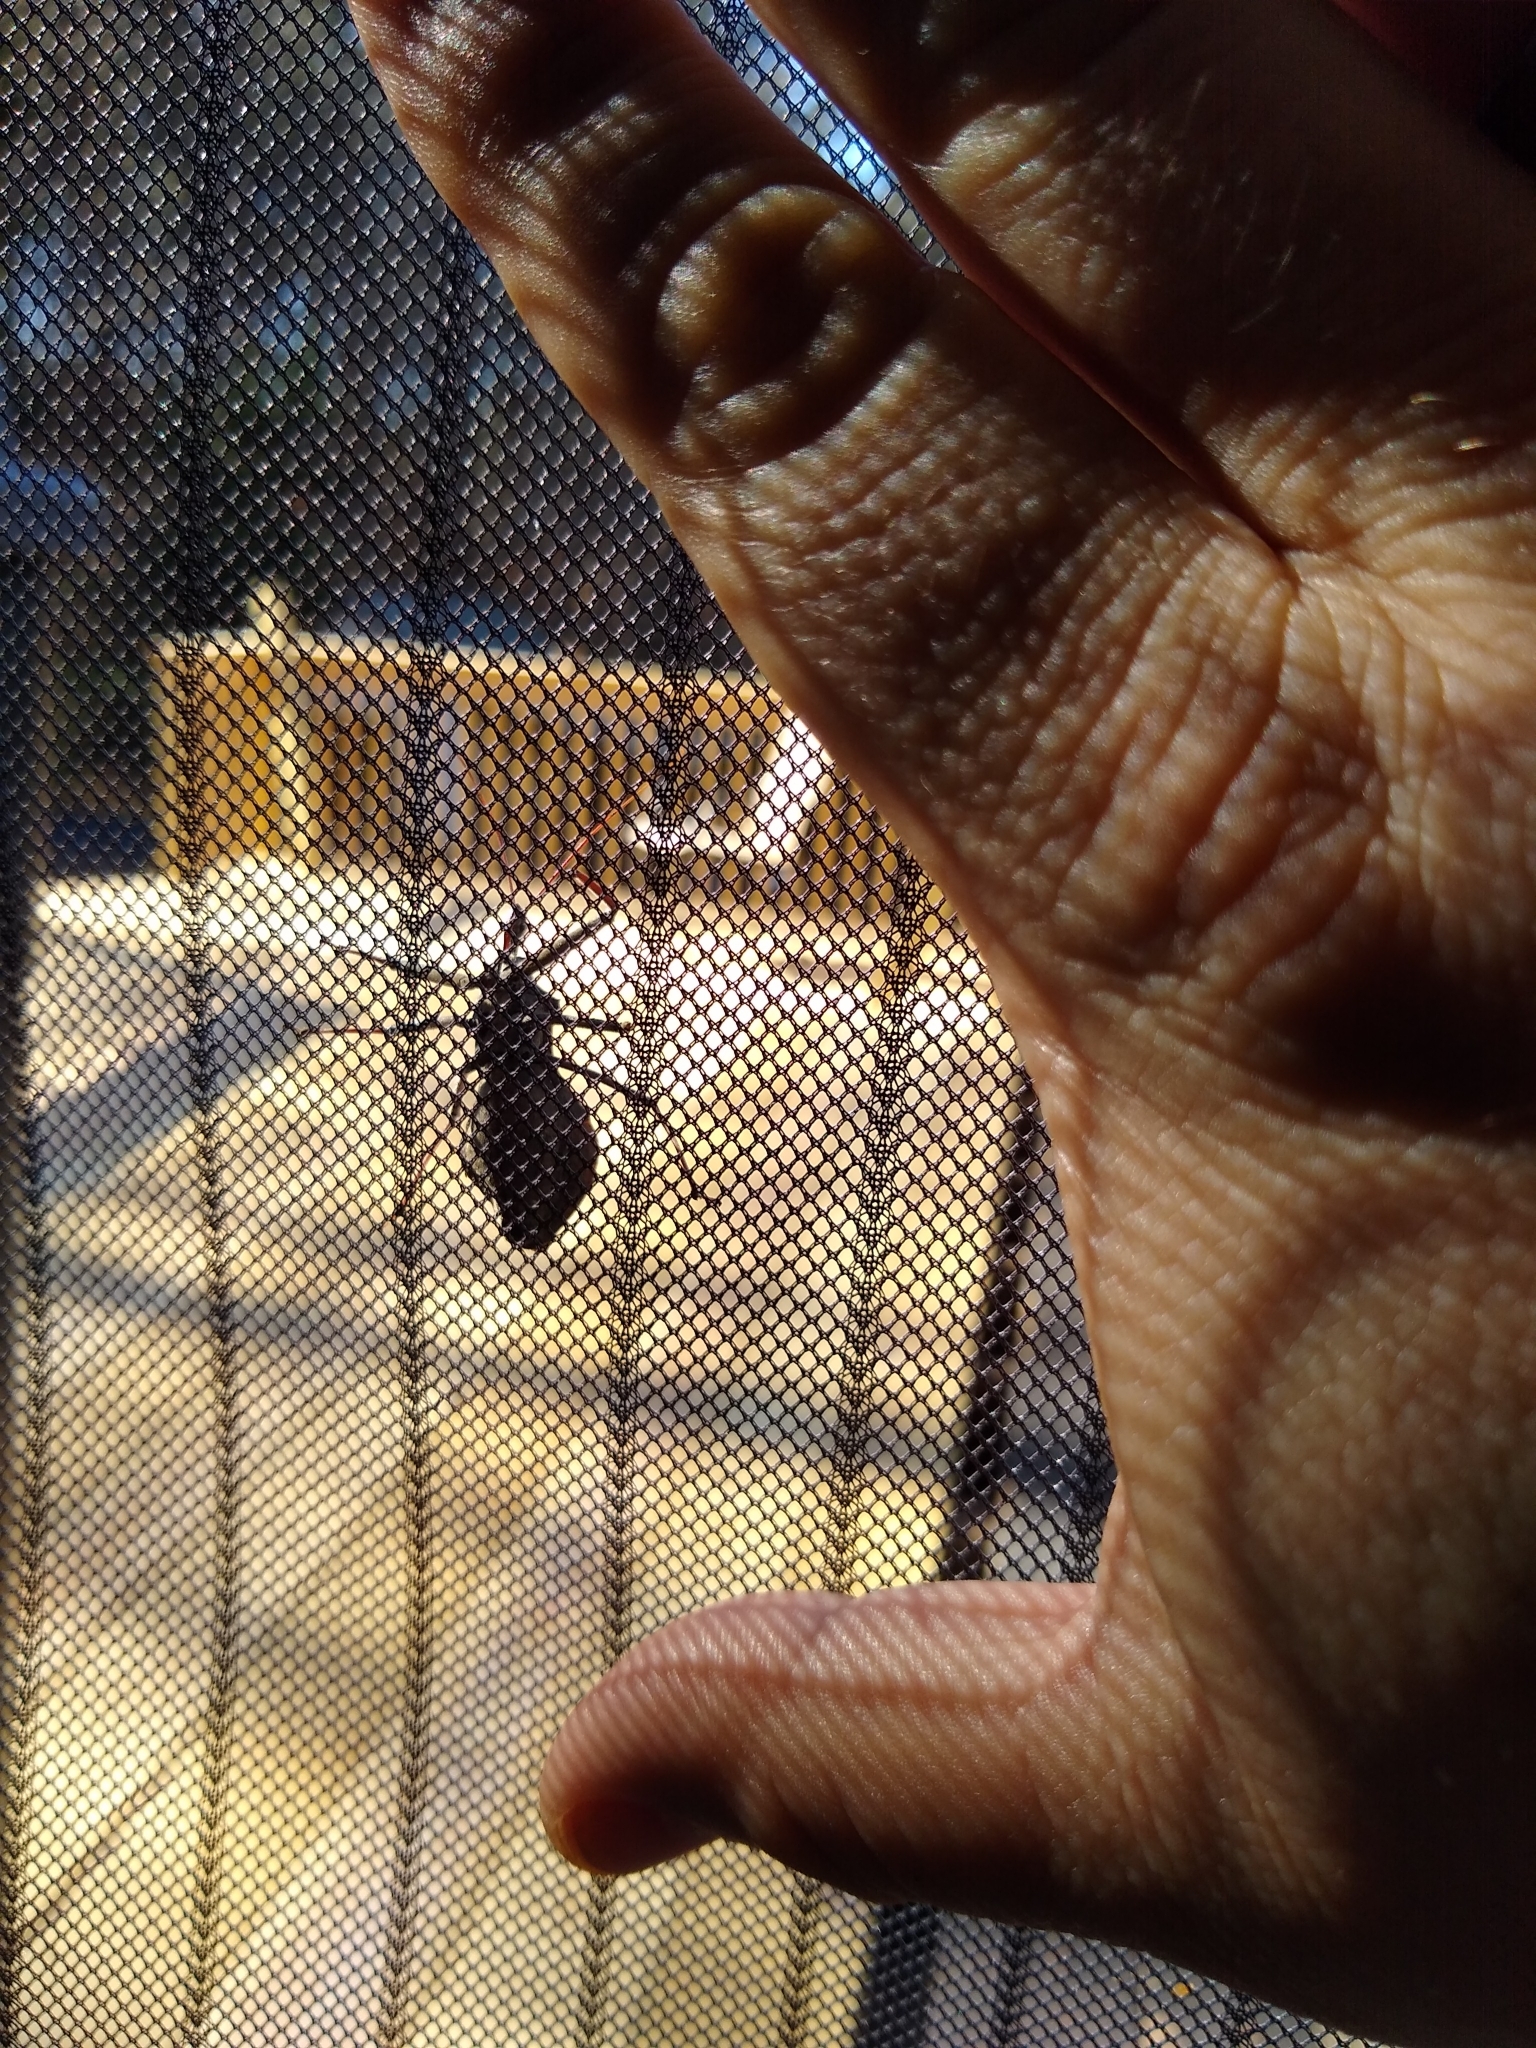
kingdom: Animalia
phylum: Arthropoda
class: Insecta
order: Hemiptera
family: Reduviidae
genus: Arilus
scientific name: Arilus cristatus
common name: North american wheel bug
